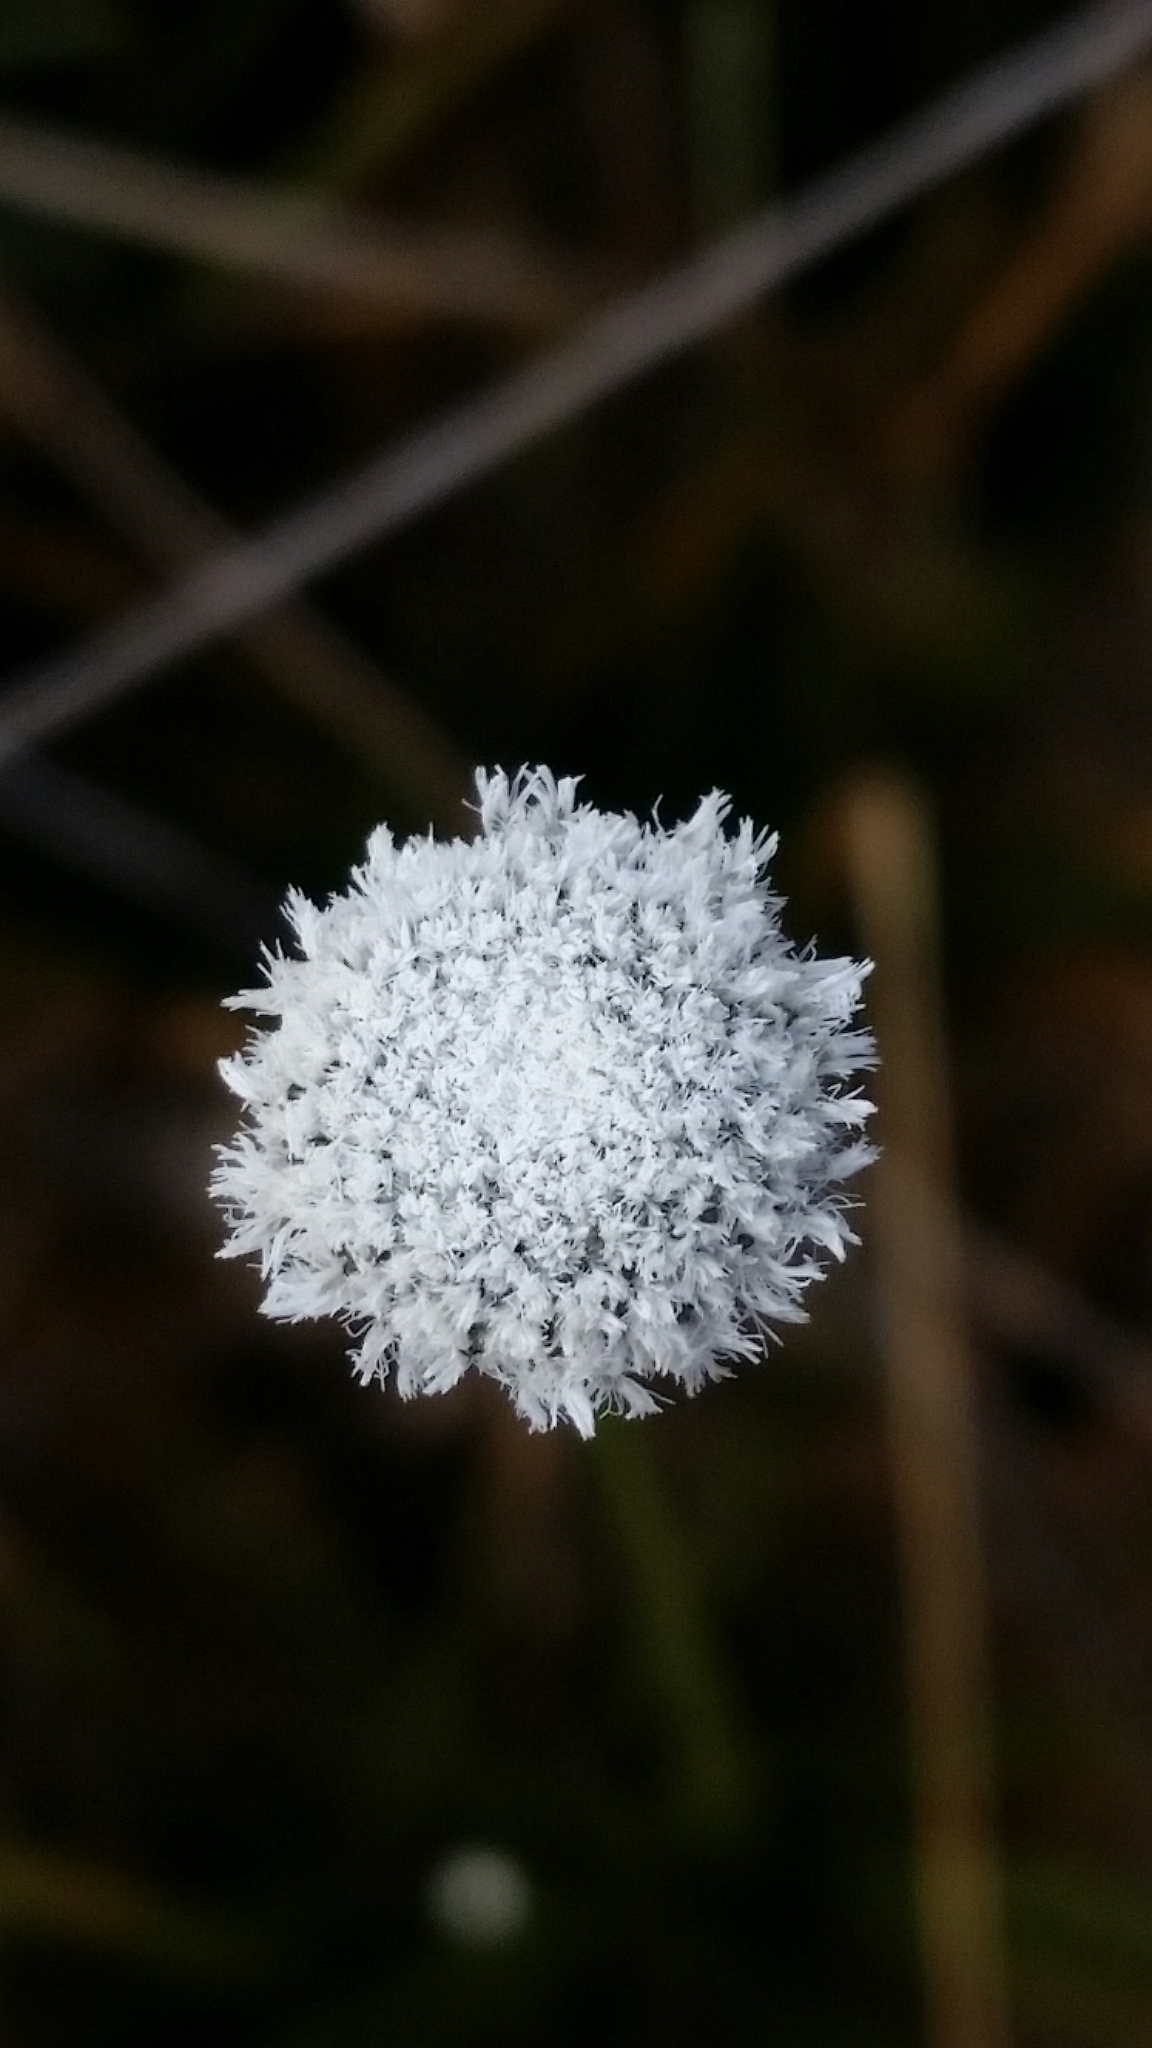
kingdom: Plantae
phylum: Tracheophyta
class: Liliopsida
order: Poales
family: Eriocaulaceae
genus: Eriocaulon
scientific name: Eriocaulon compressum
